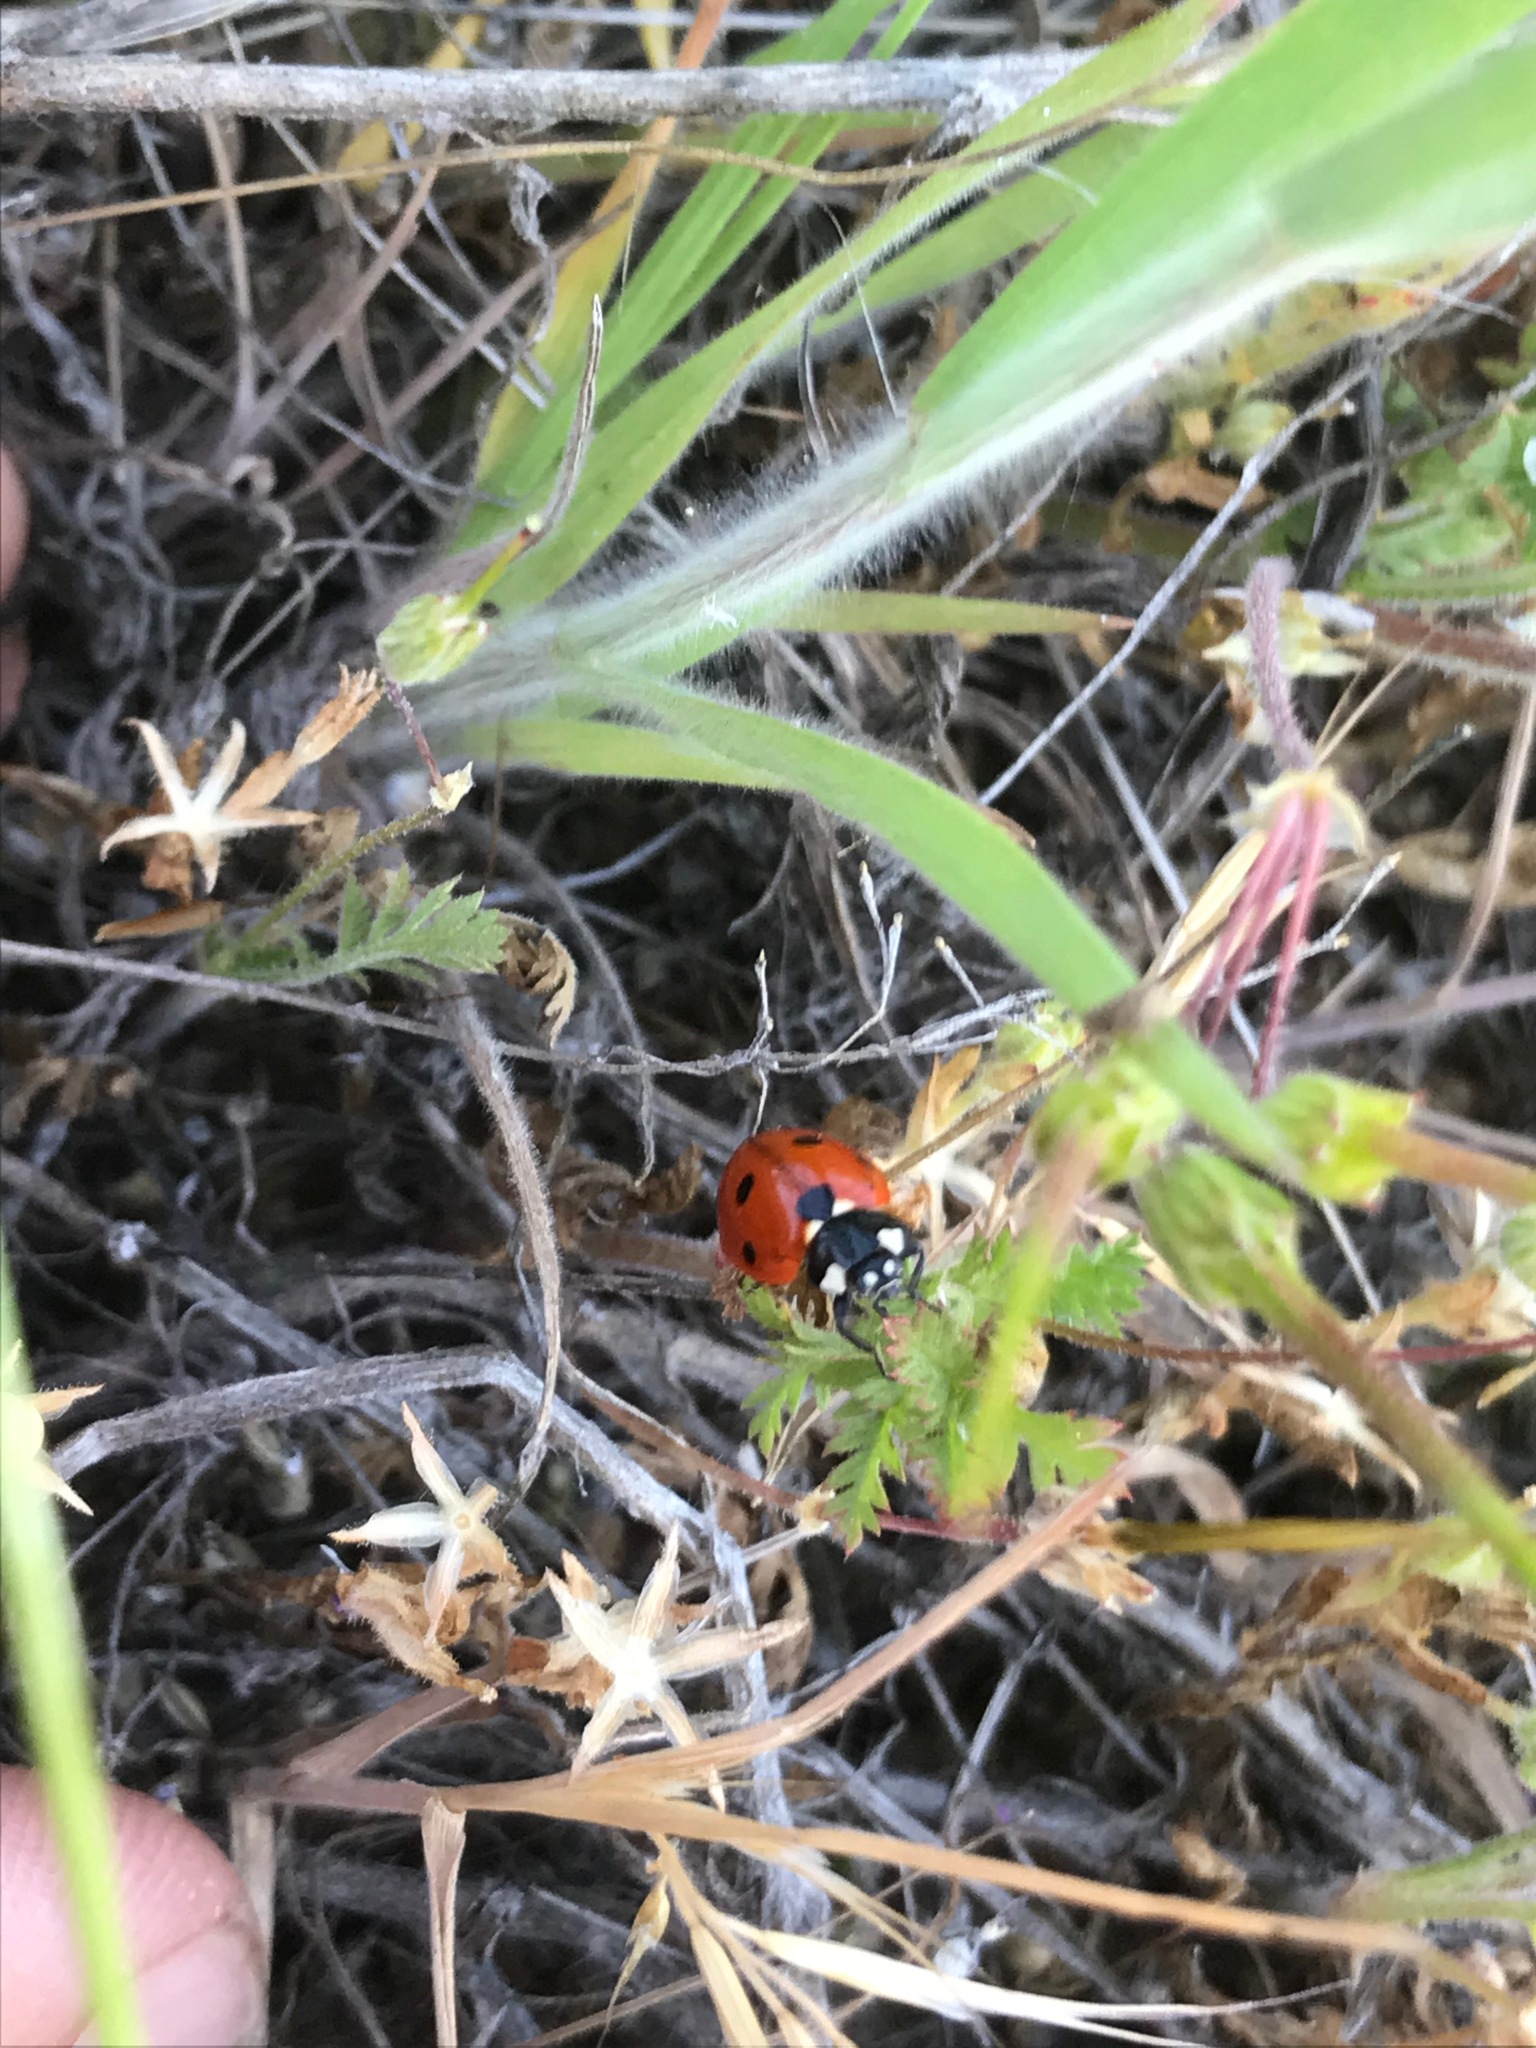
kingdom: Animalia
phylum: Arthropoda
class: Insecta
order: Coleoptera
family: Coccinellidae
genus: Coccinella
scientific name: Coccinella septempunctata
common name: Sevenspotted lady beetle
